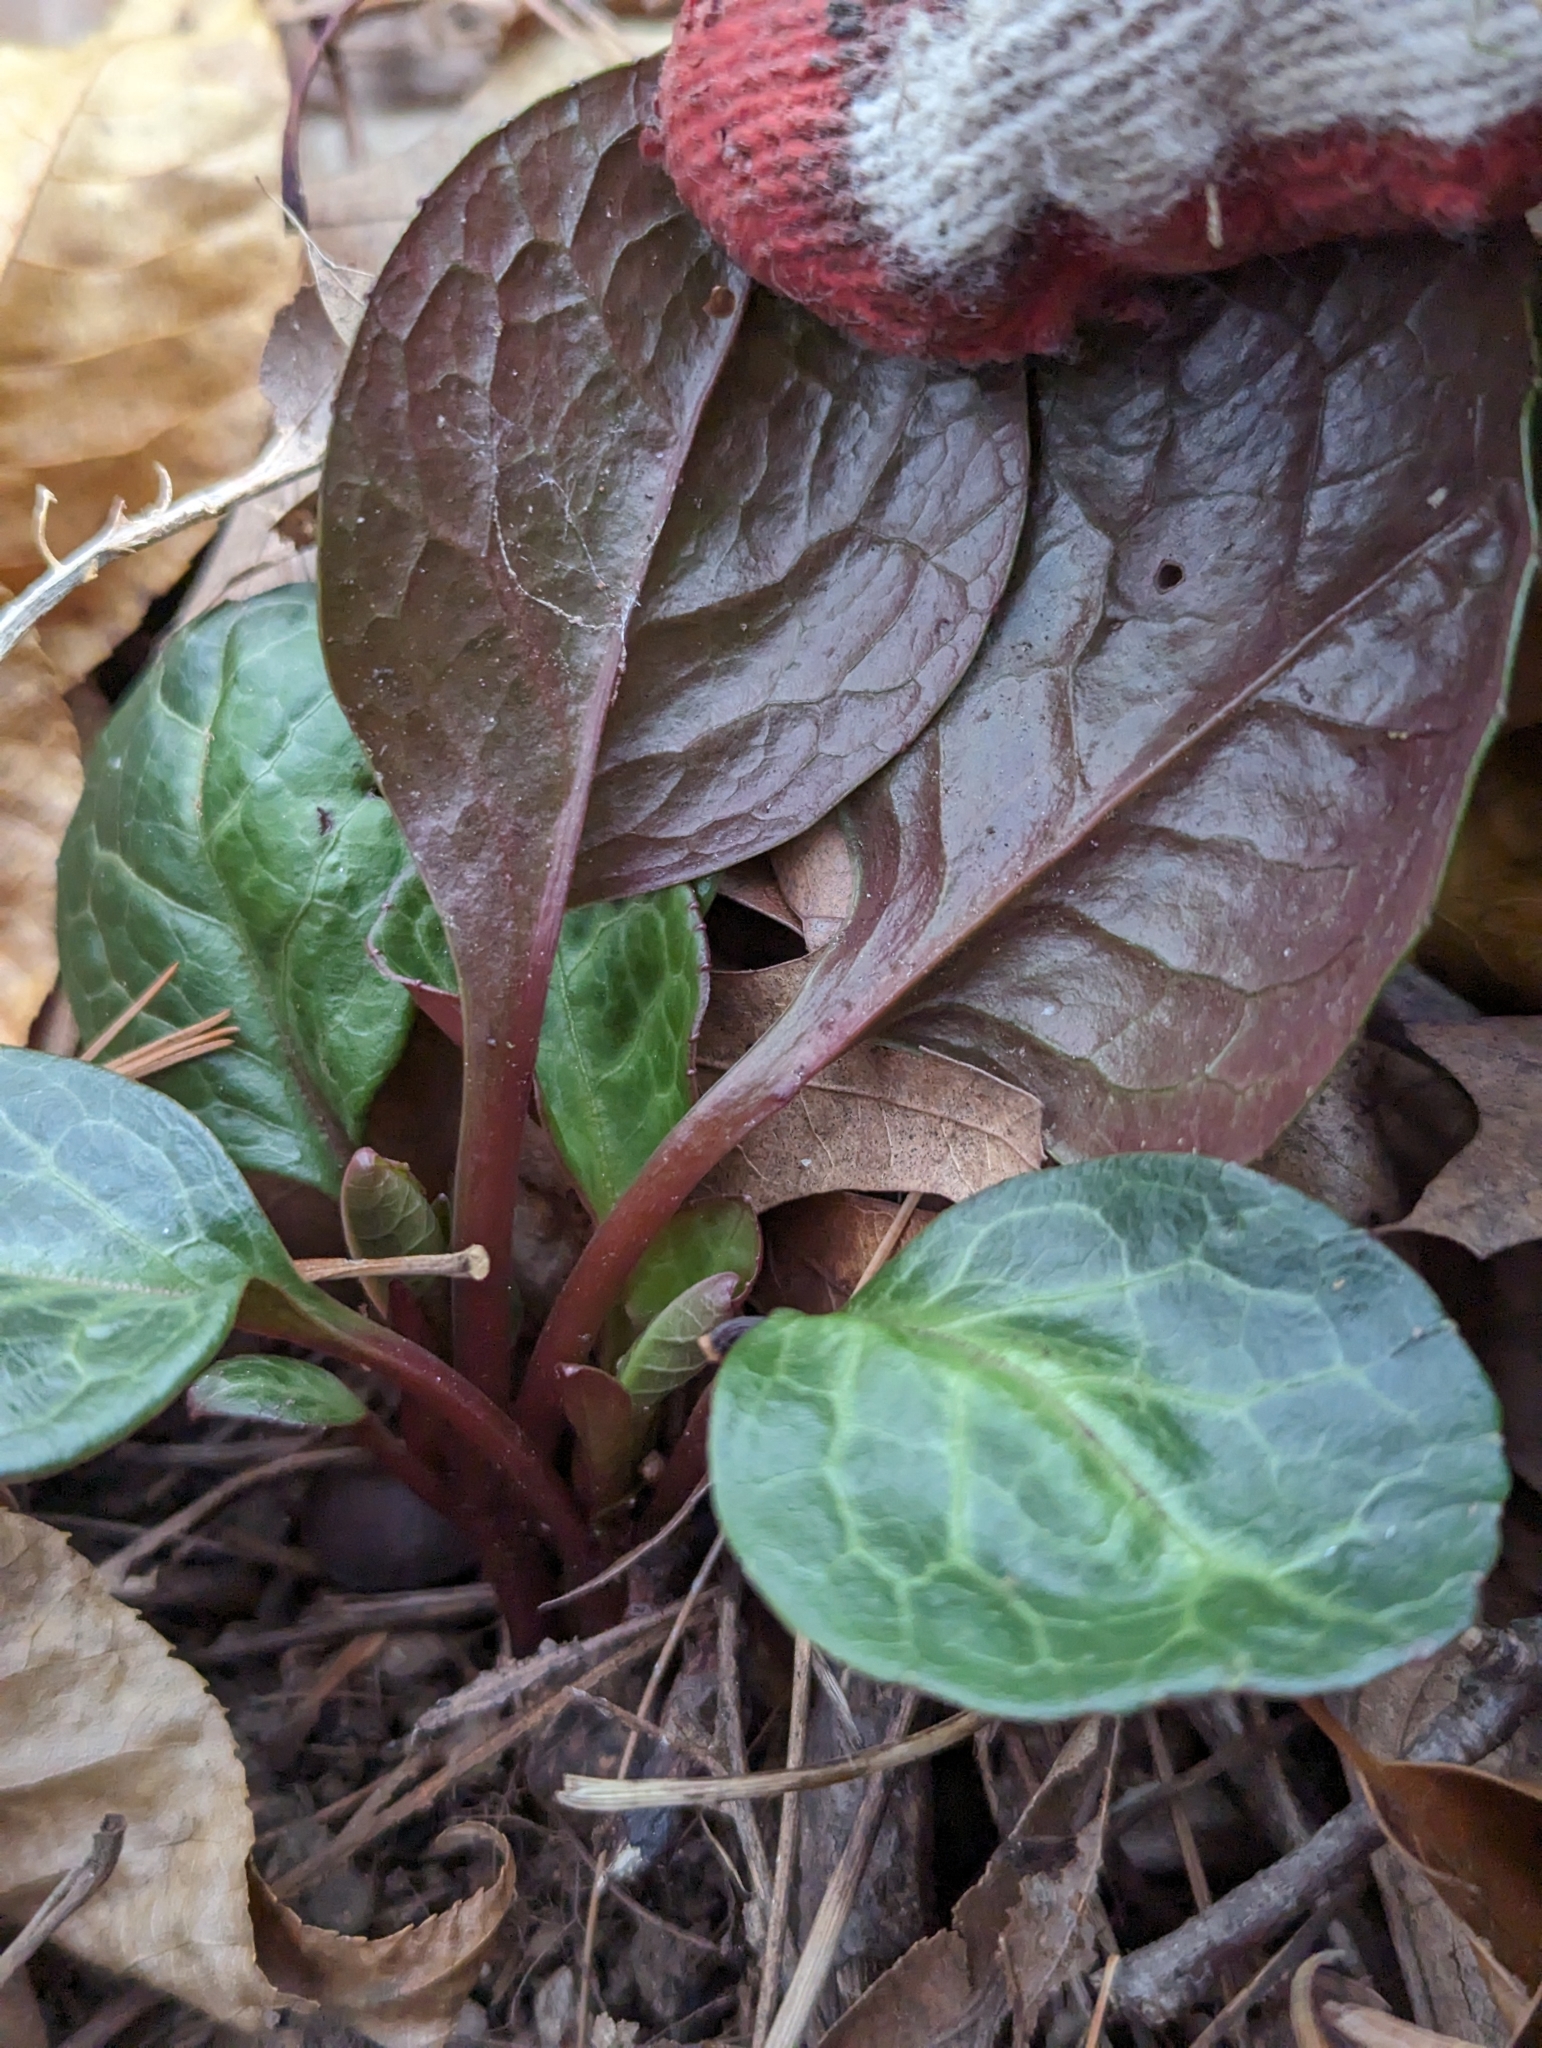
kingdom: Plantae
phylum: Tracheophyta
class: Magnoliopsida
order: Ericales
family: Ericaceae
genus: Pyrola
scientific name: Pyrola americana
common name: American wintergreen
